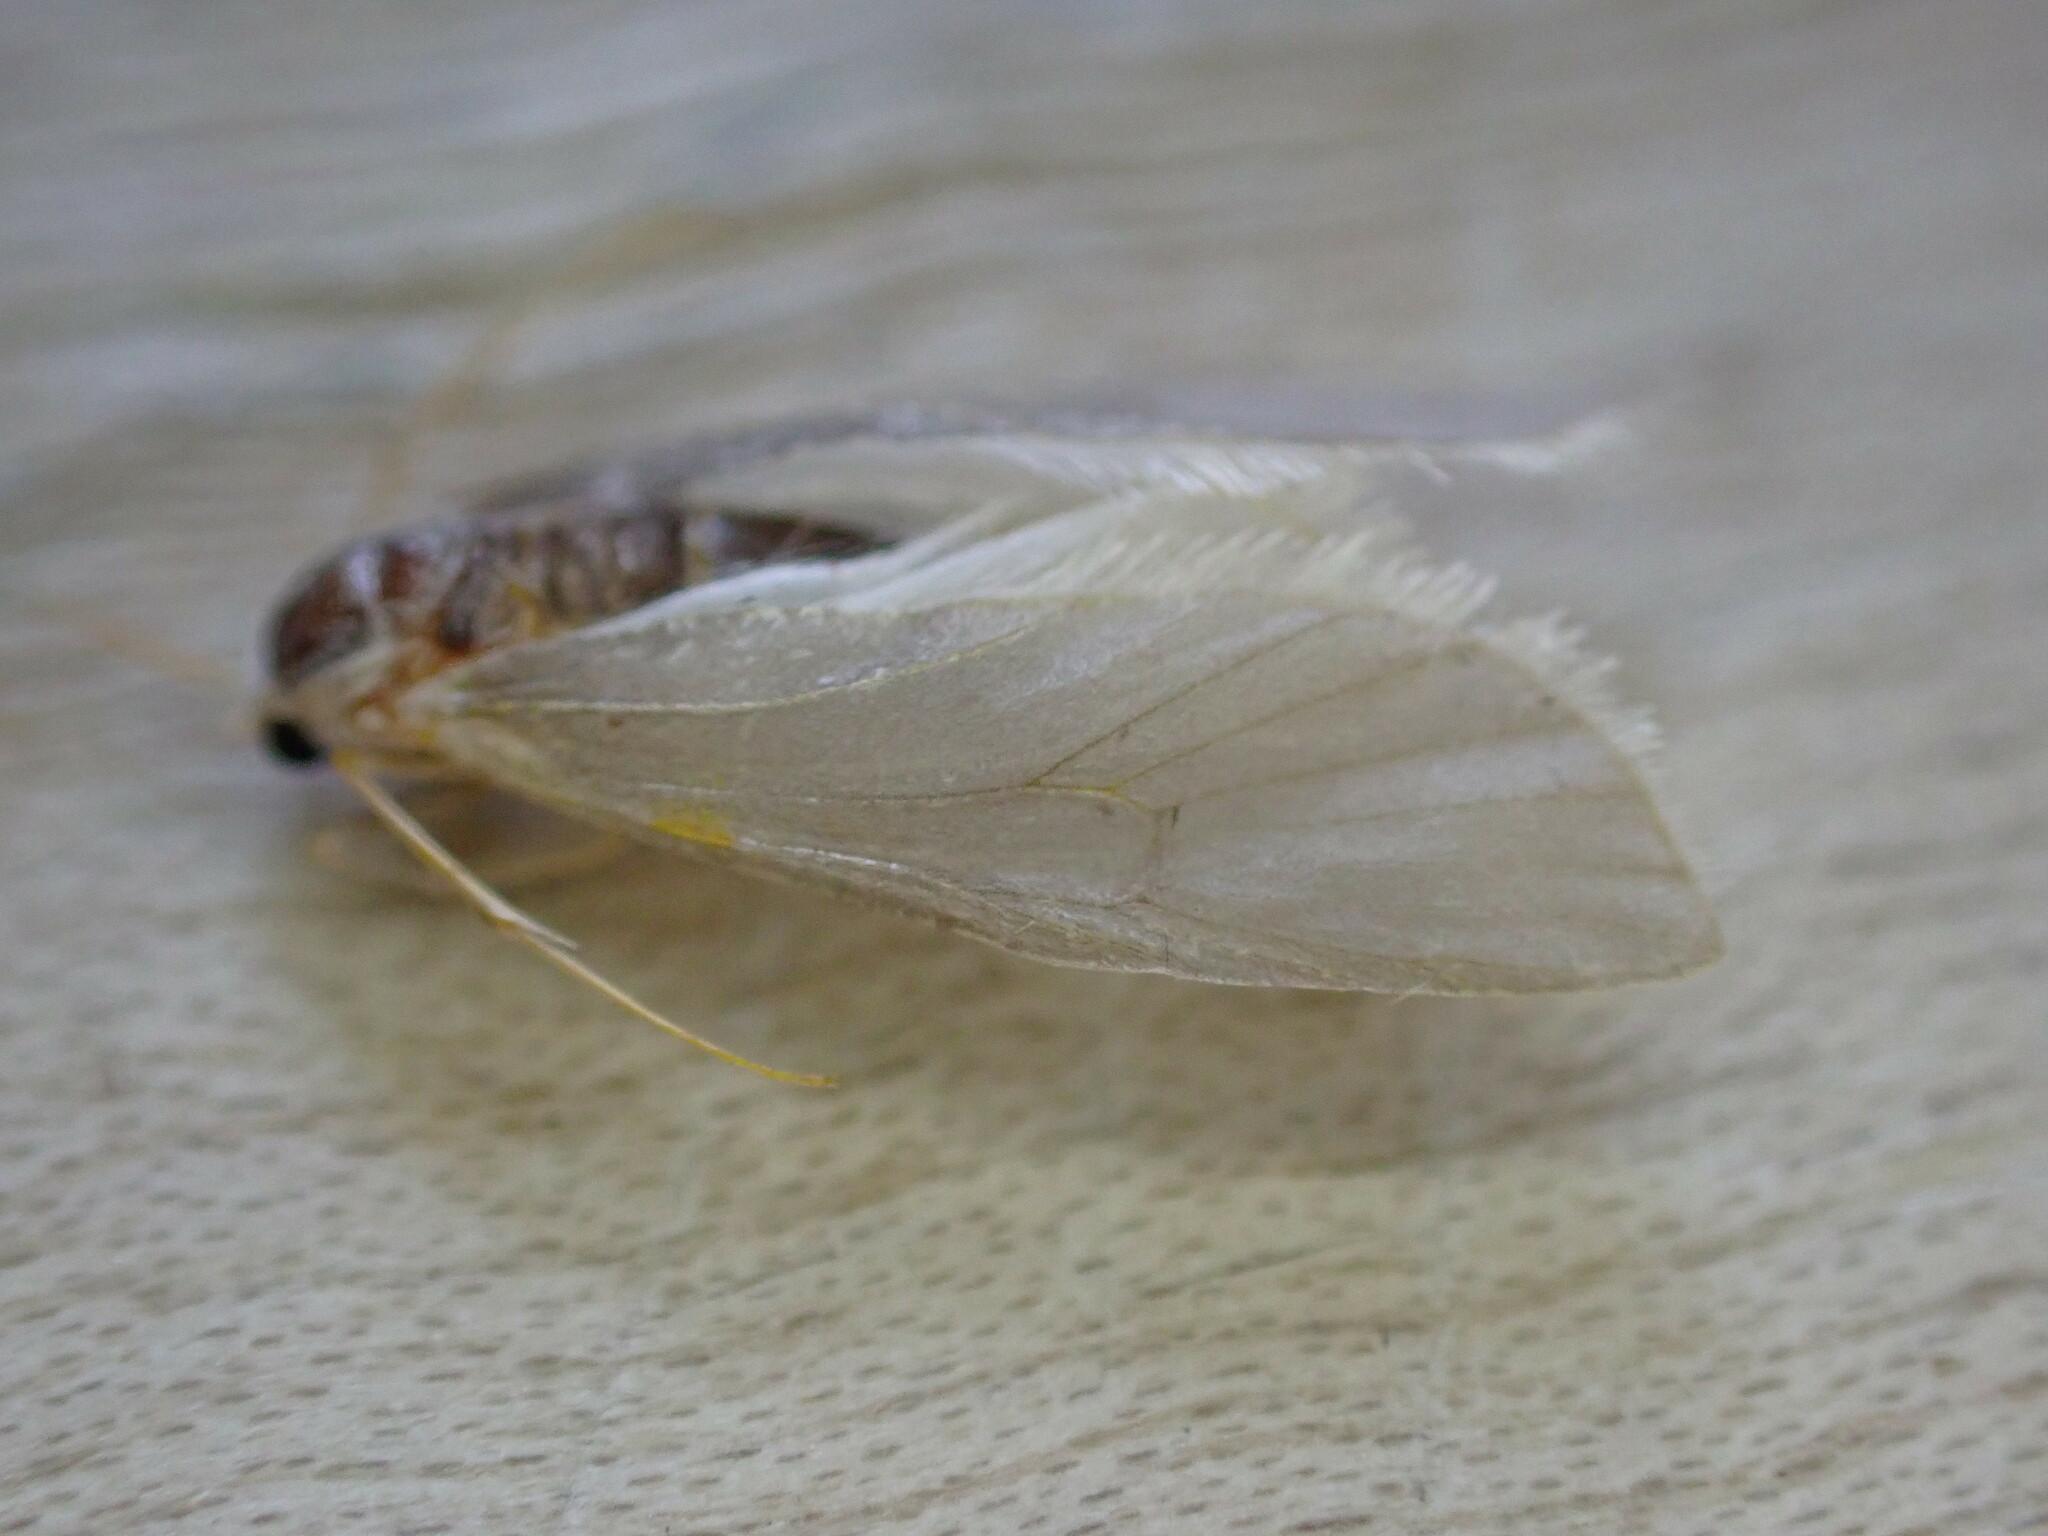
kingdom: Animalia
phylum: Arthropoda
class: Insecta
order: Lepidoptera
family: Crambidae
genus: Acentria
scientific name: Acentria ephemerella
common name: European water moth
